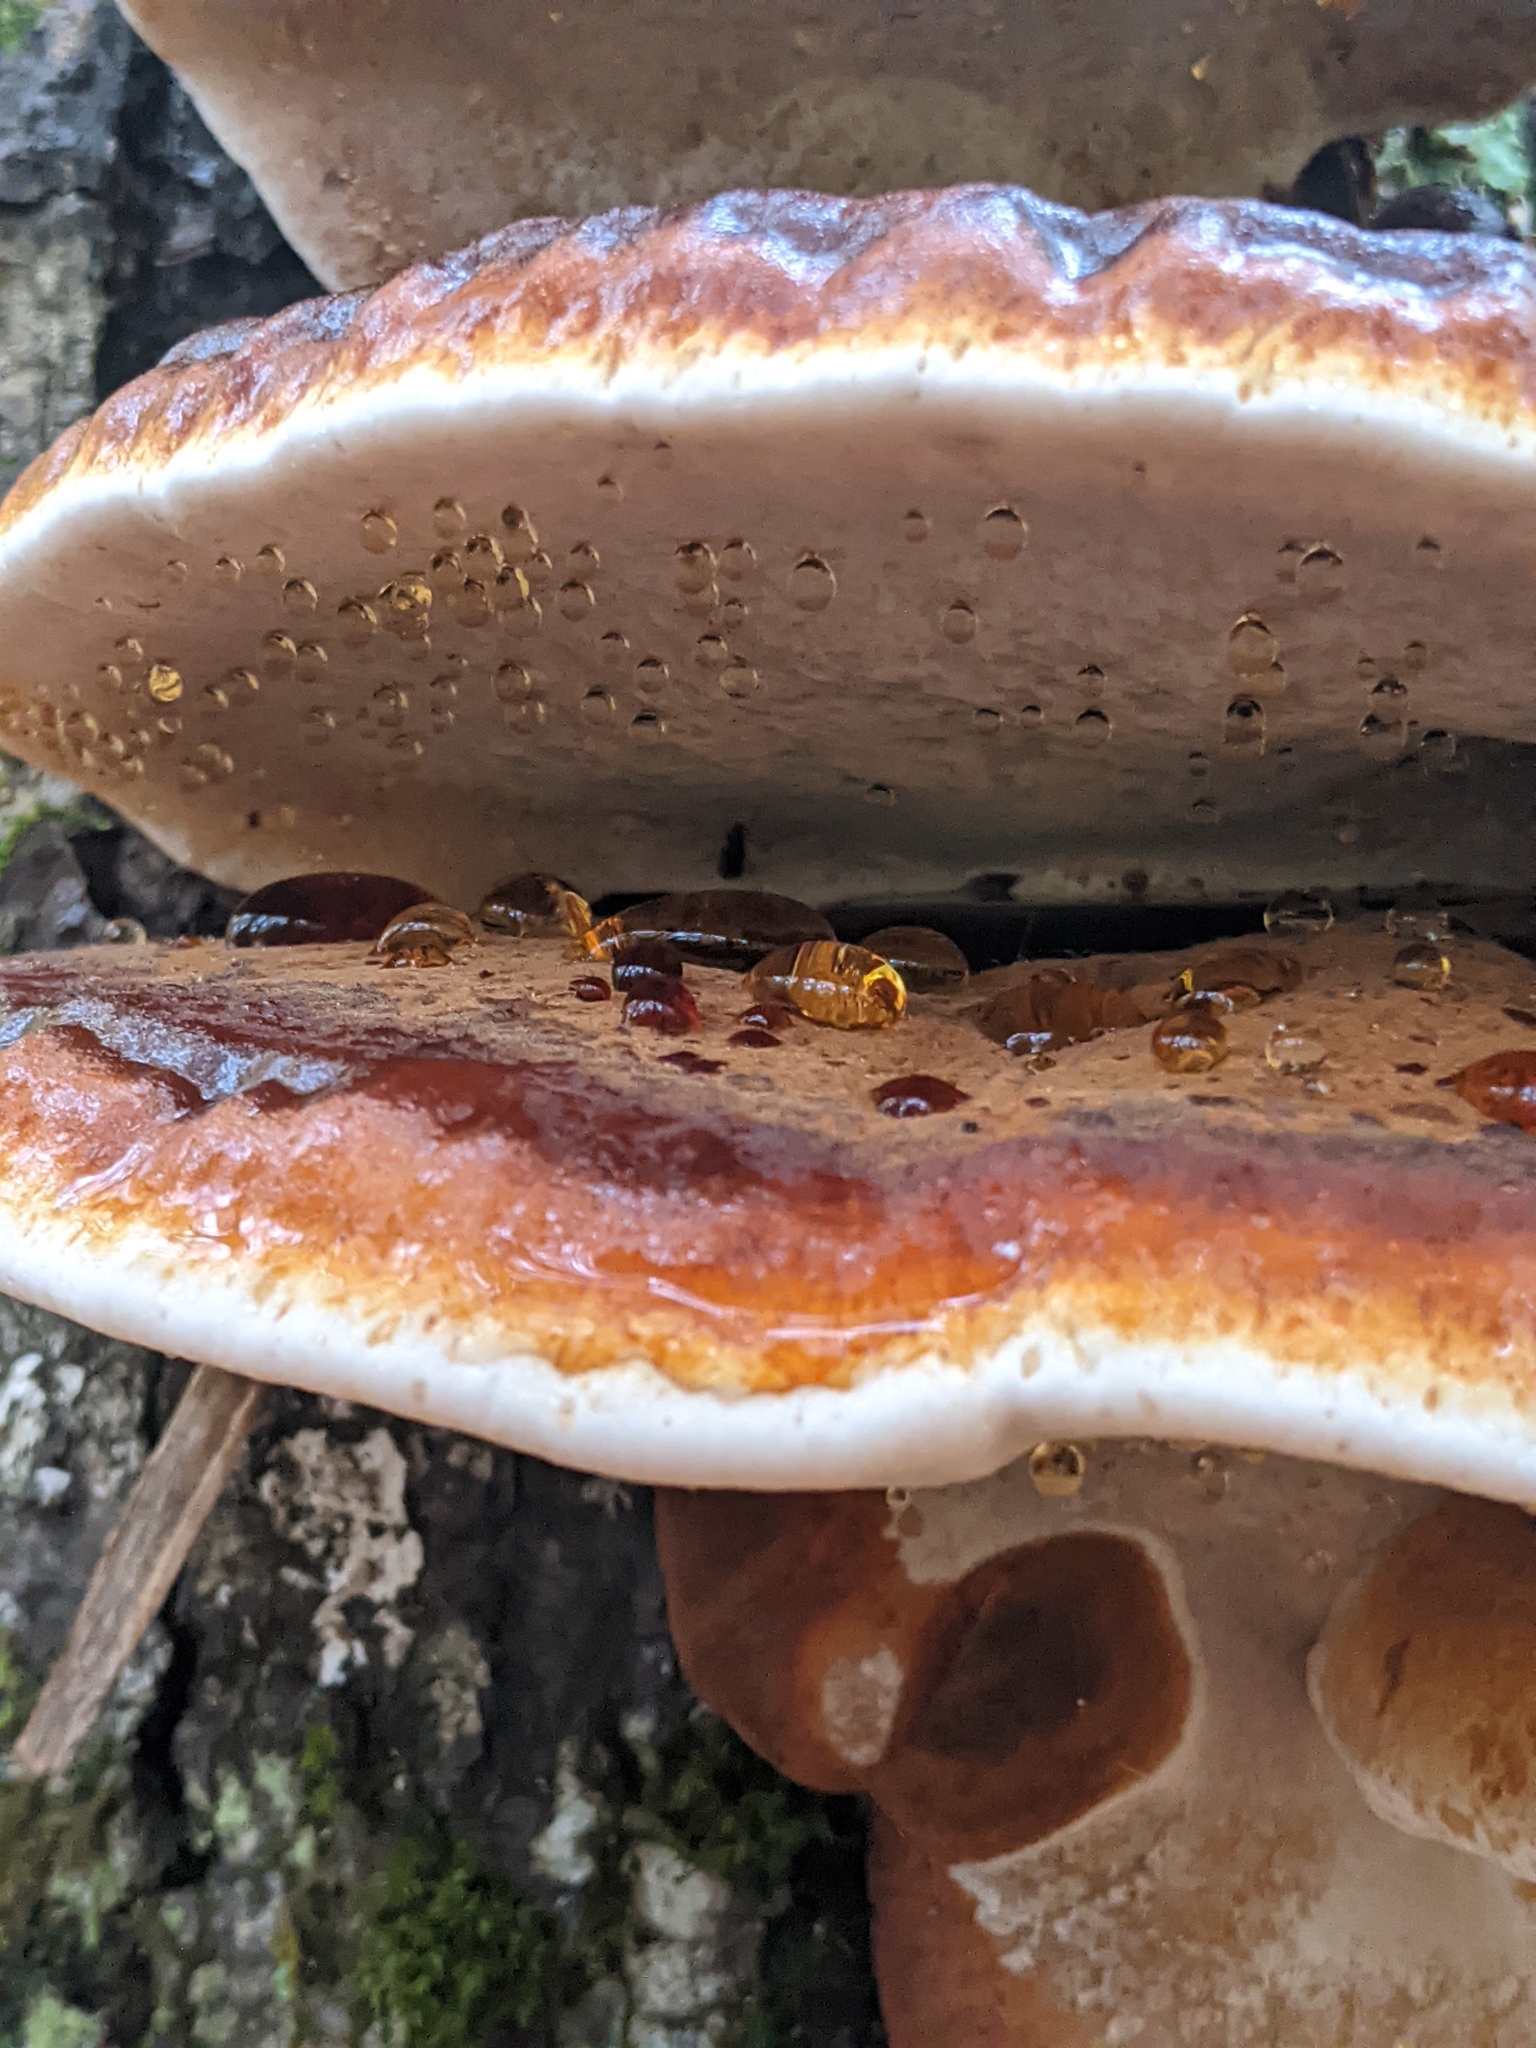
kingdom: Fungi
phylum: Basidiomycota
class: Agaricomycetes
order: Polyporales
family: Ischnodermataceae
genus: Ischnoderma
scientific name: Ischnoderma resinosum
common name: Resinous polypore
